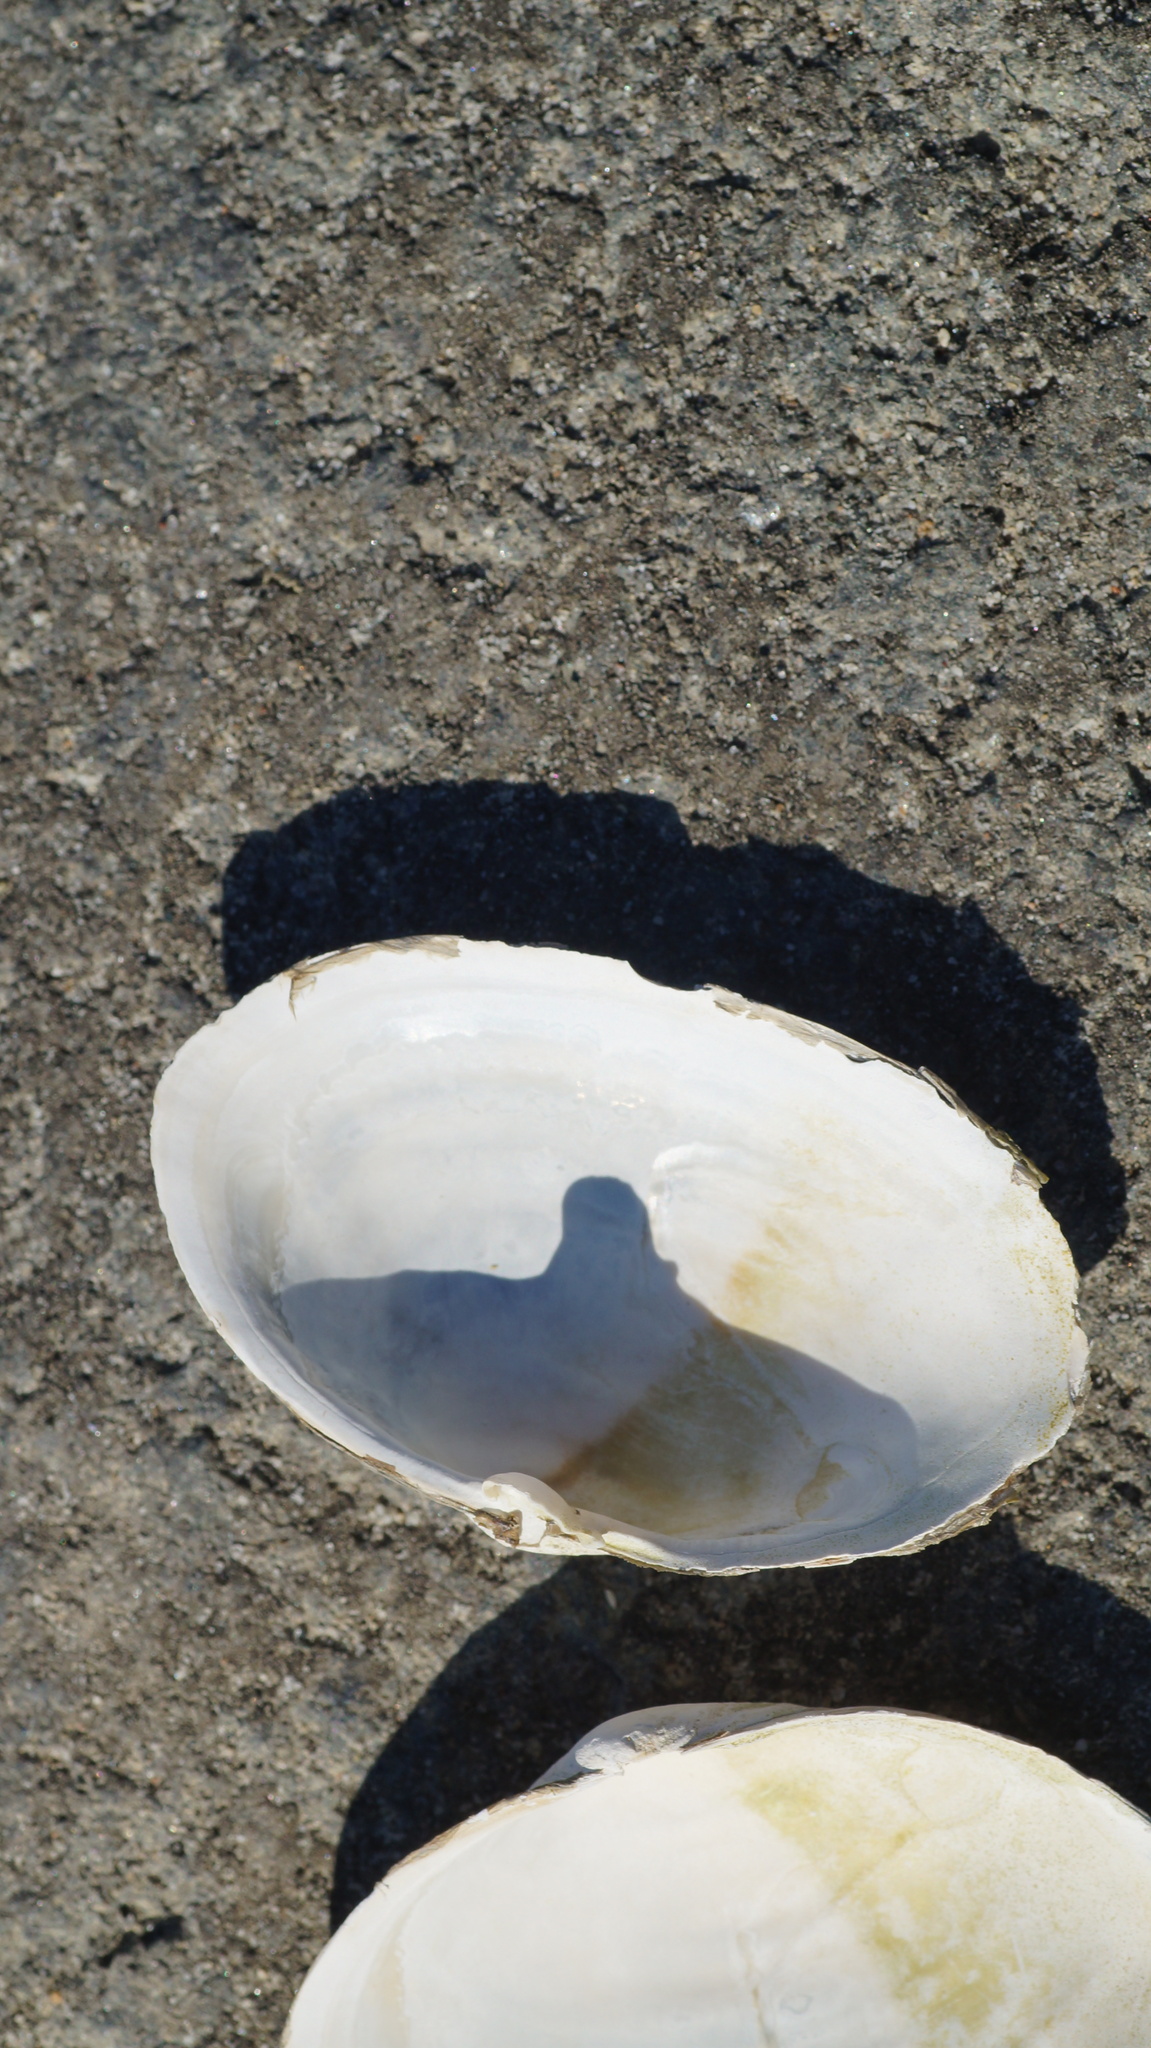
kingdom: Animalia
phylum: Mollusca
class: Bivalvia
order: Myida
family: Myidae
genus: Mya
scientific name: Mya arenaria
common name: Soft-shelled clam
